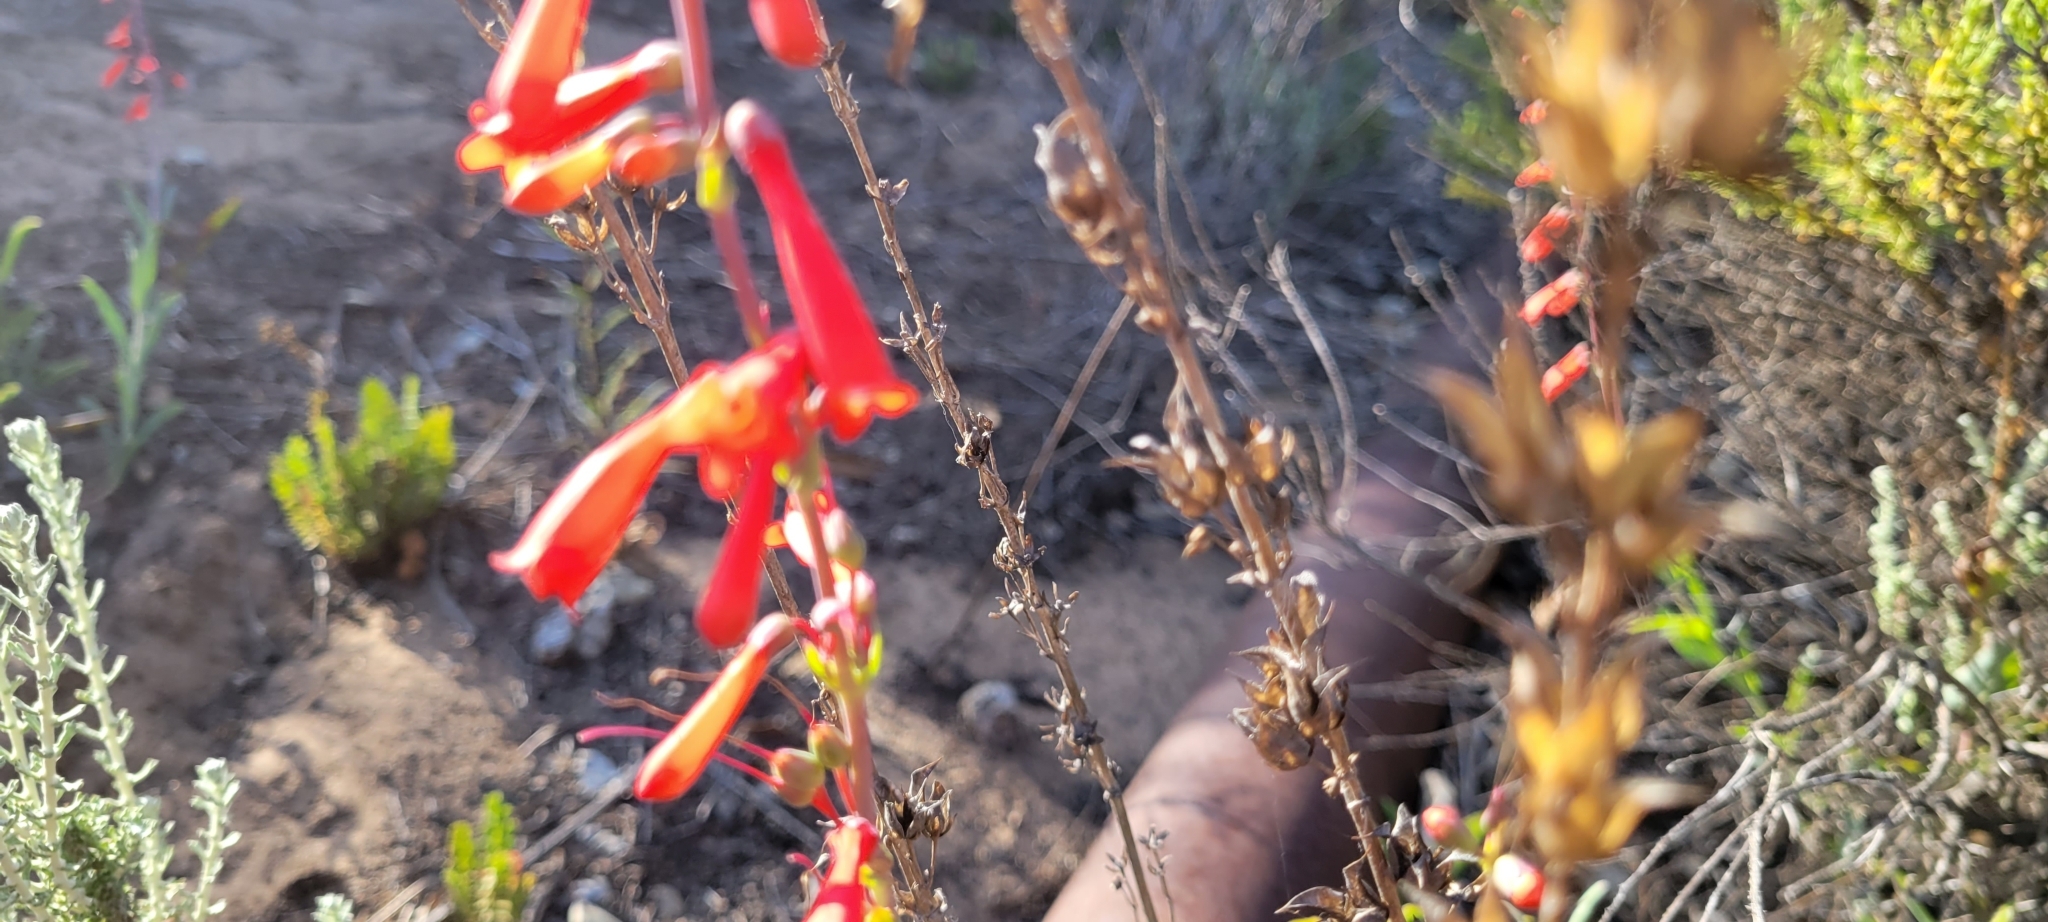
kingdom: Plantae
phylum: Tracheophyta
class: Magnoliopsida
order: Lamiales
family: Plantaginaceae
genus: Penstemon
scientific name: Penstemon centranthifolius
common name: Scarlet bugler
